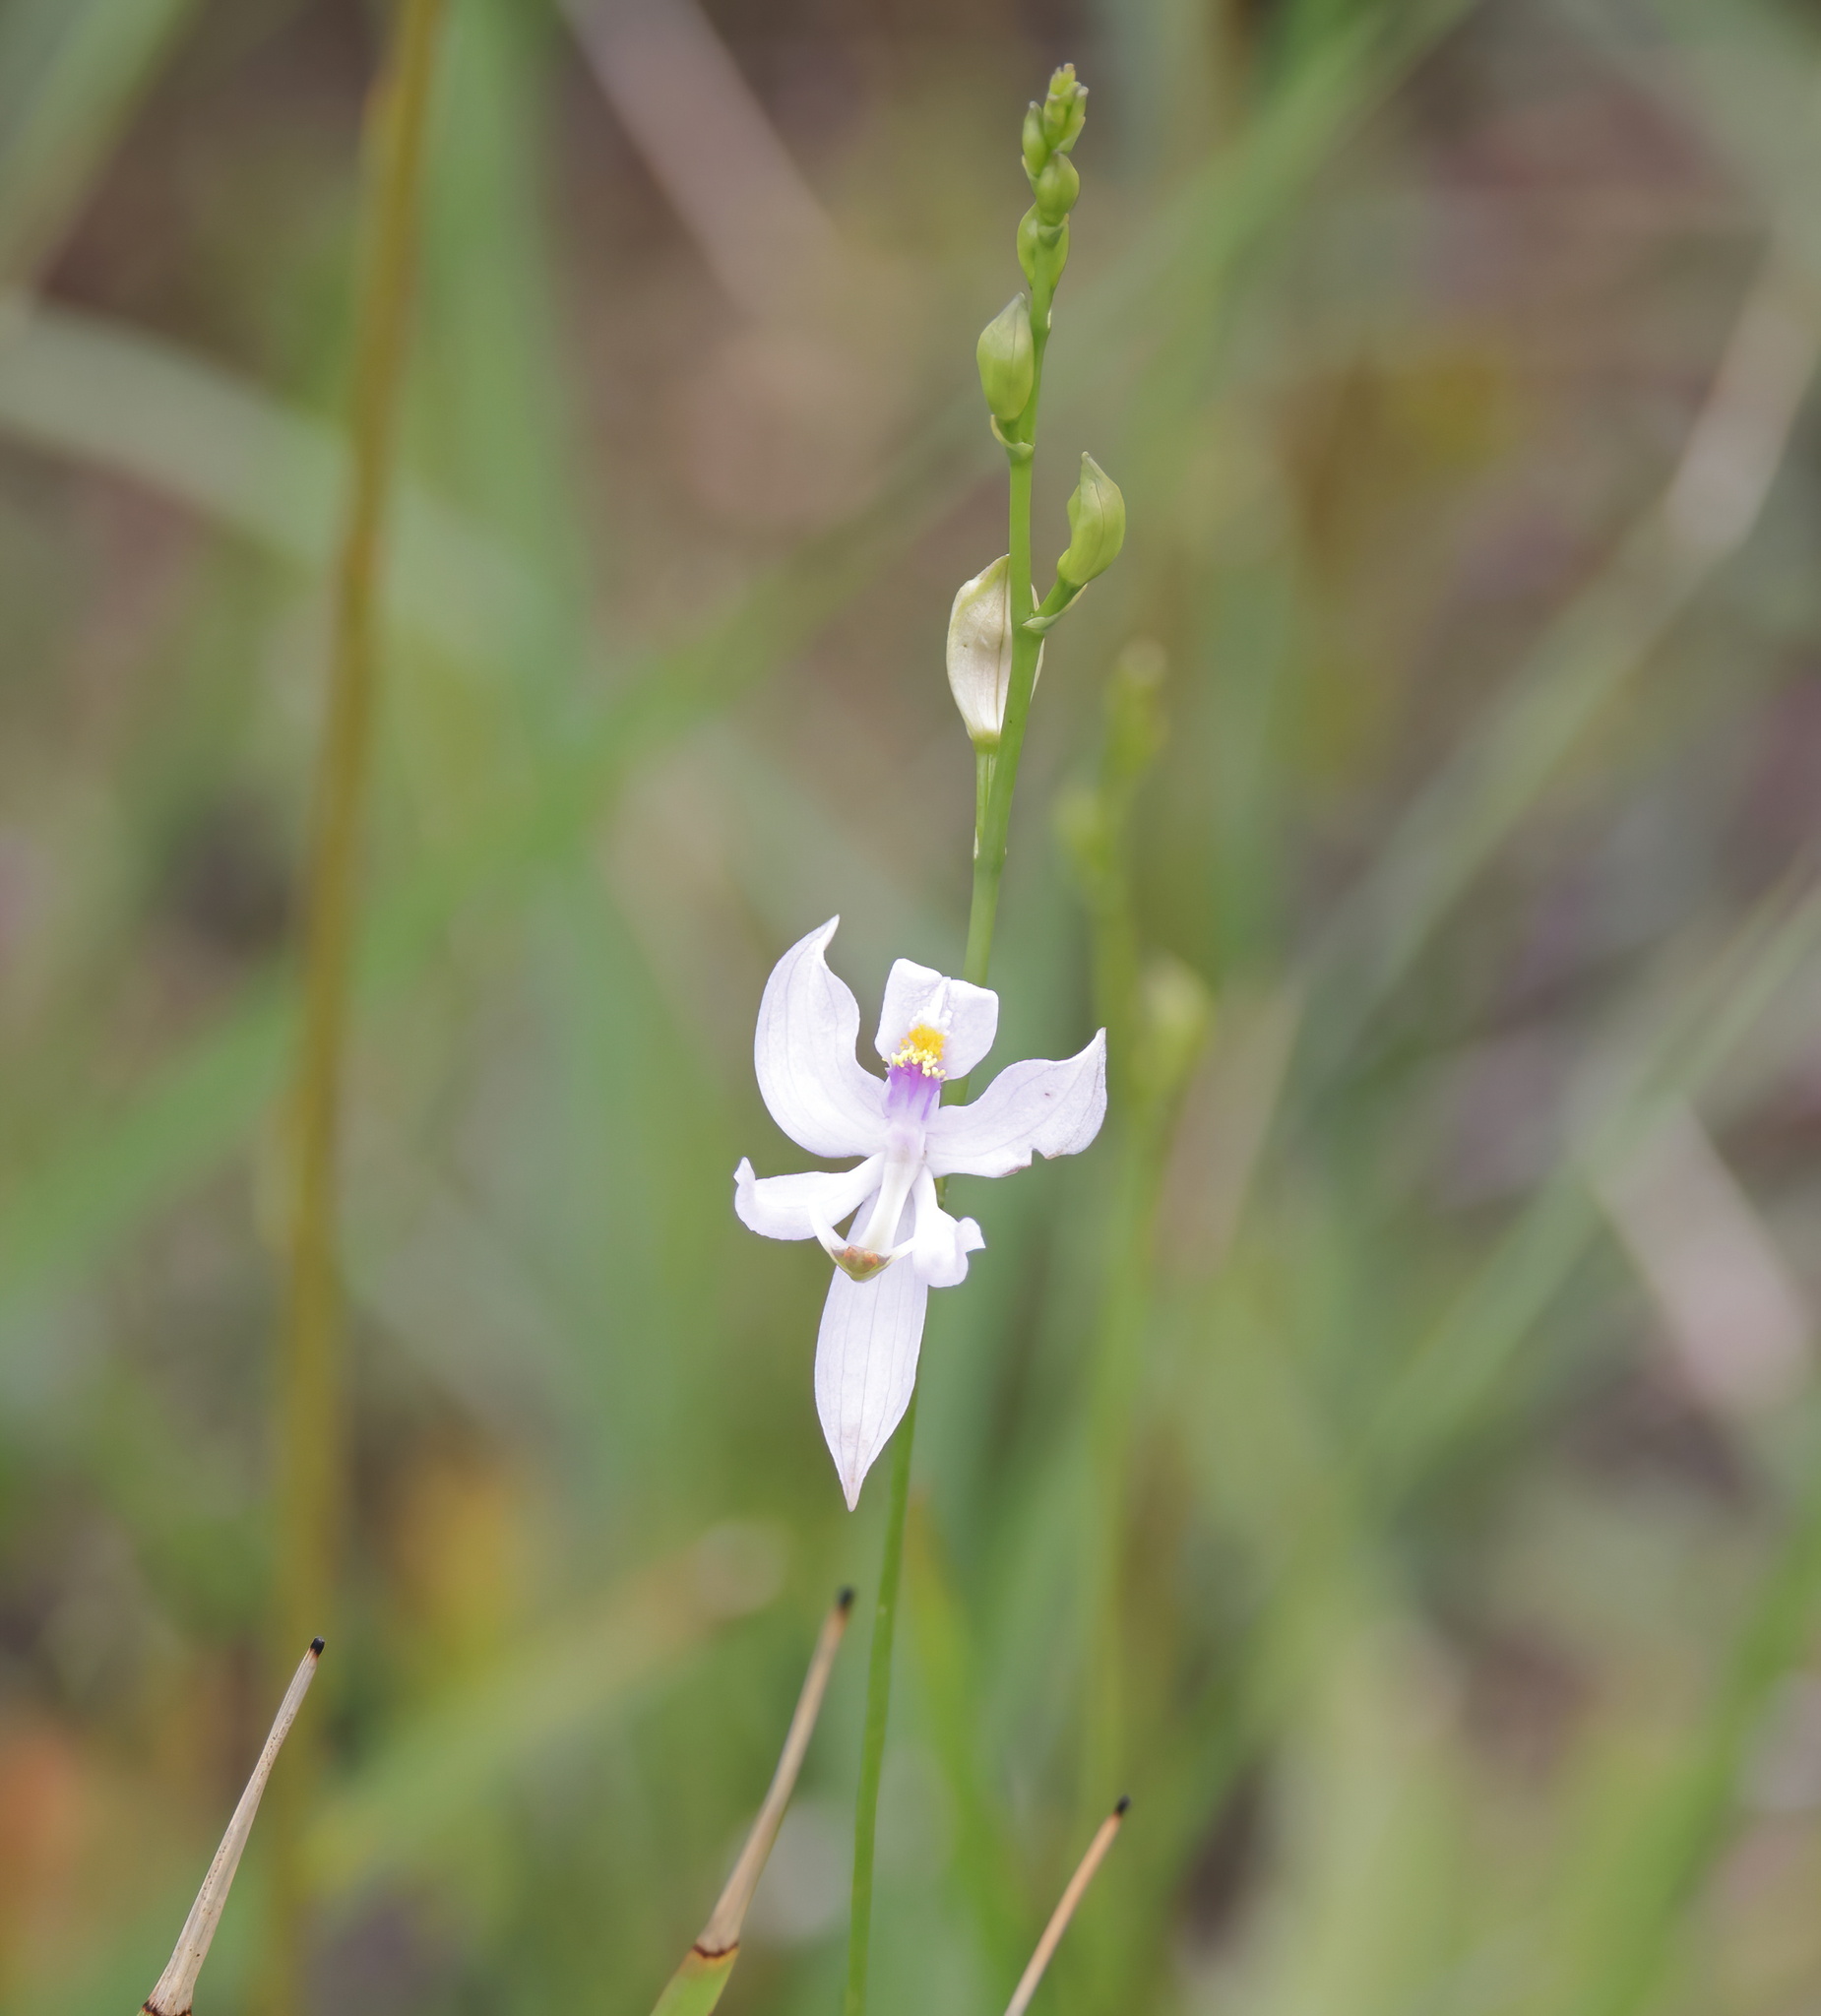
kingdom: Plantae
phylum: Tracheophyta
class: Liliopsida
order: Asparagales
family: Orchidaceae
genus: Calopogon
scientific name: Calopogon pallidus
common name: Pale grasspink
